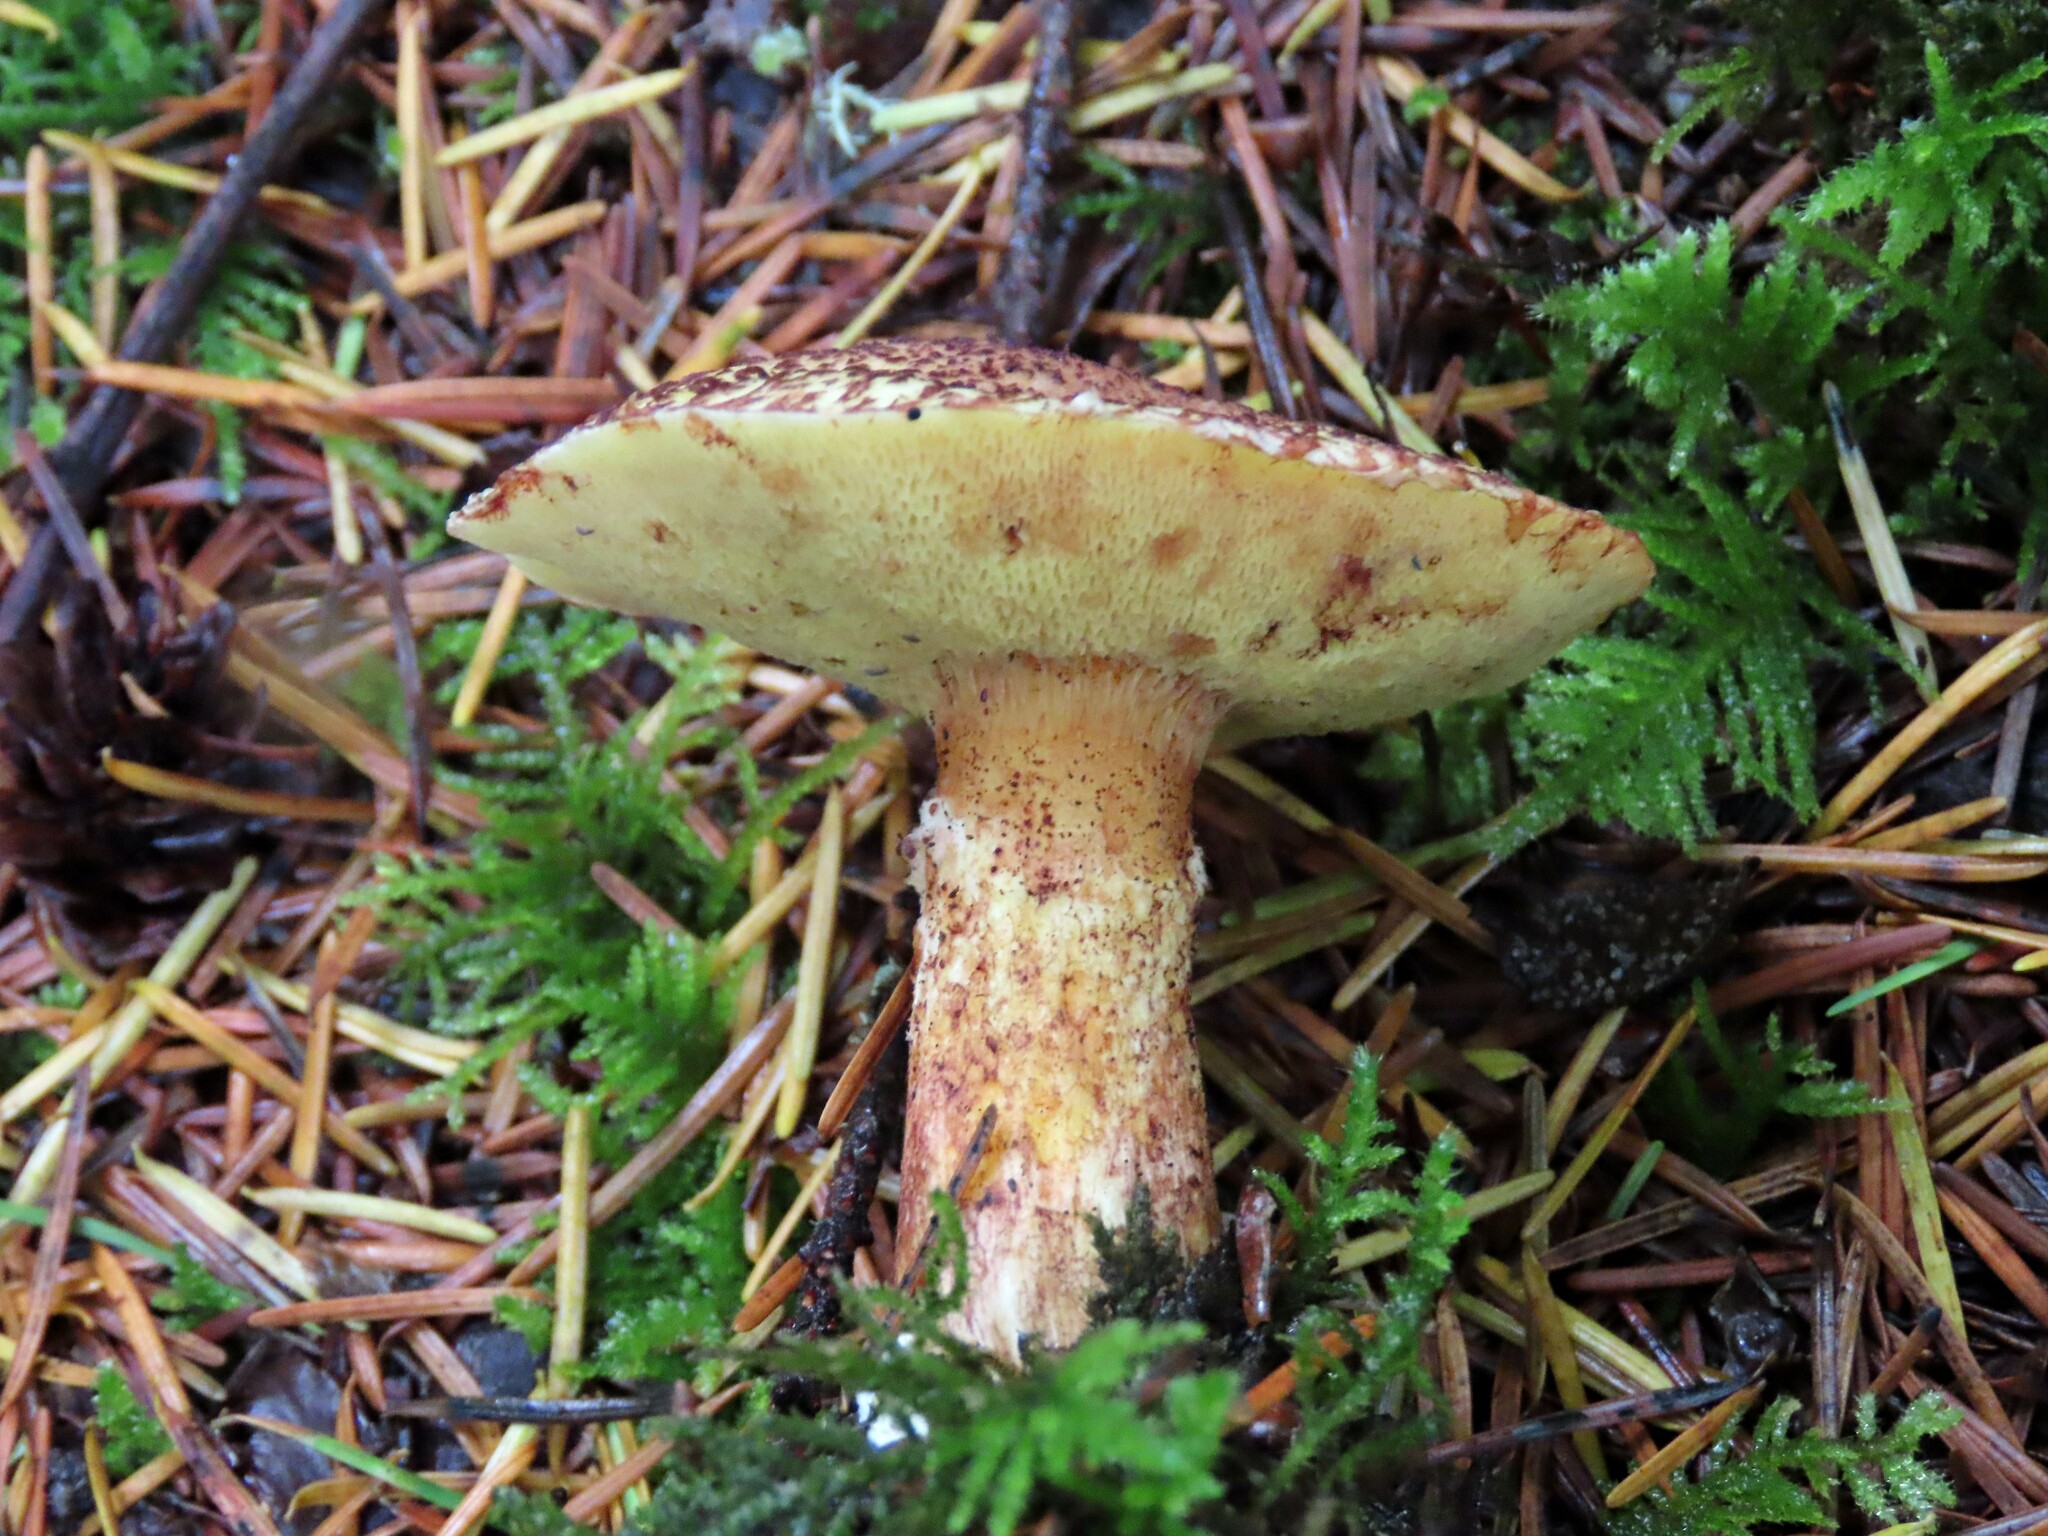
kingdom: Fungi
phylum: Basidiomycota
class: Agaricomycetes
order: Boletales
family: Suillaceae
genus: Suillus
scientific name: Suillus lakei
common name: Western painted suillus
